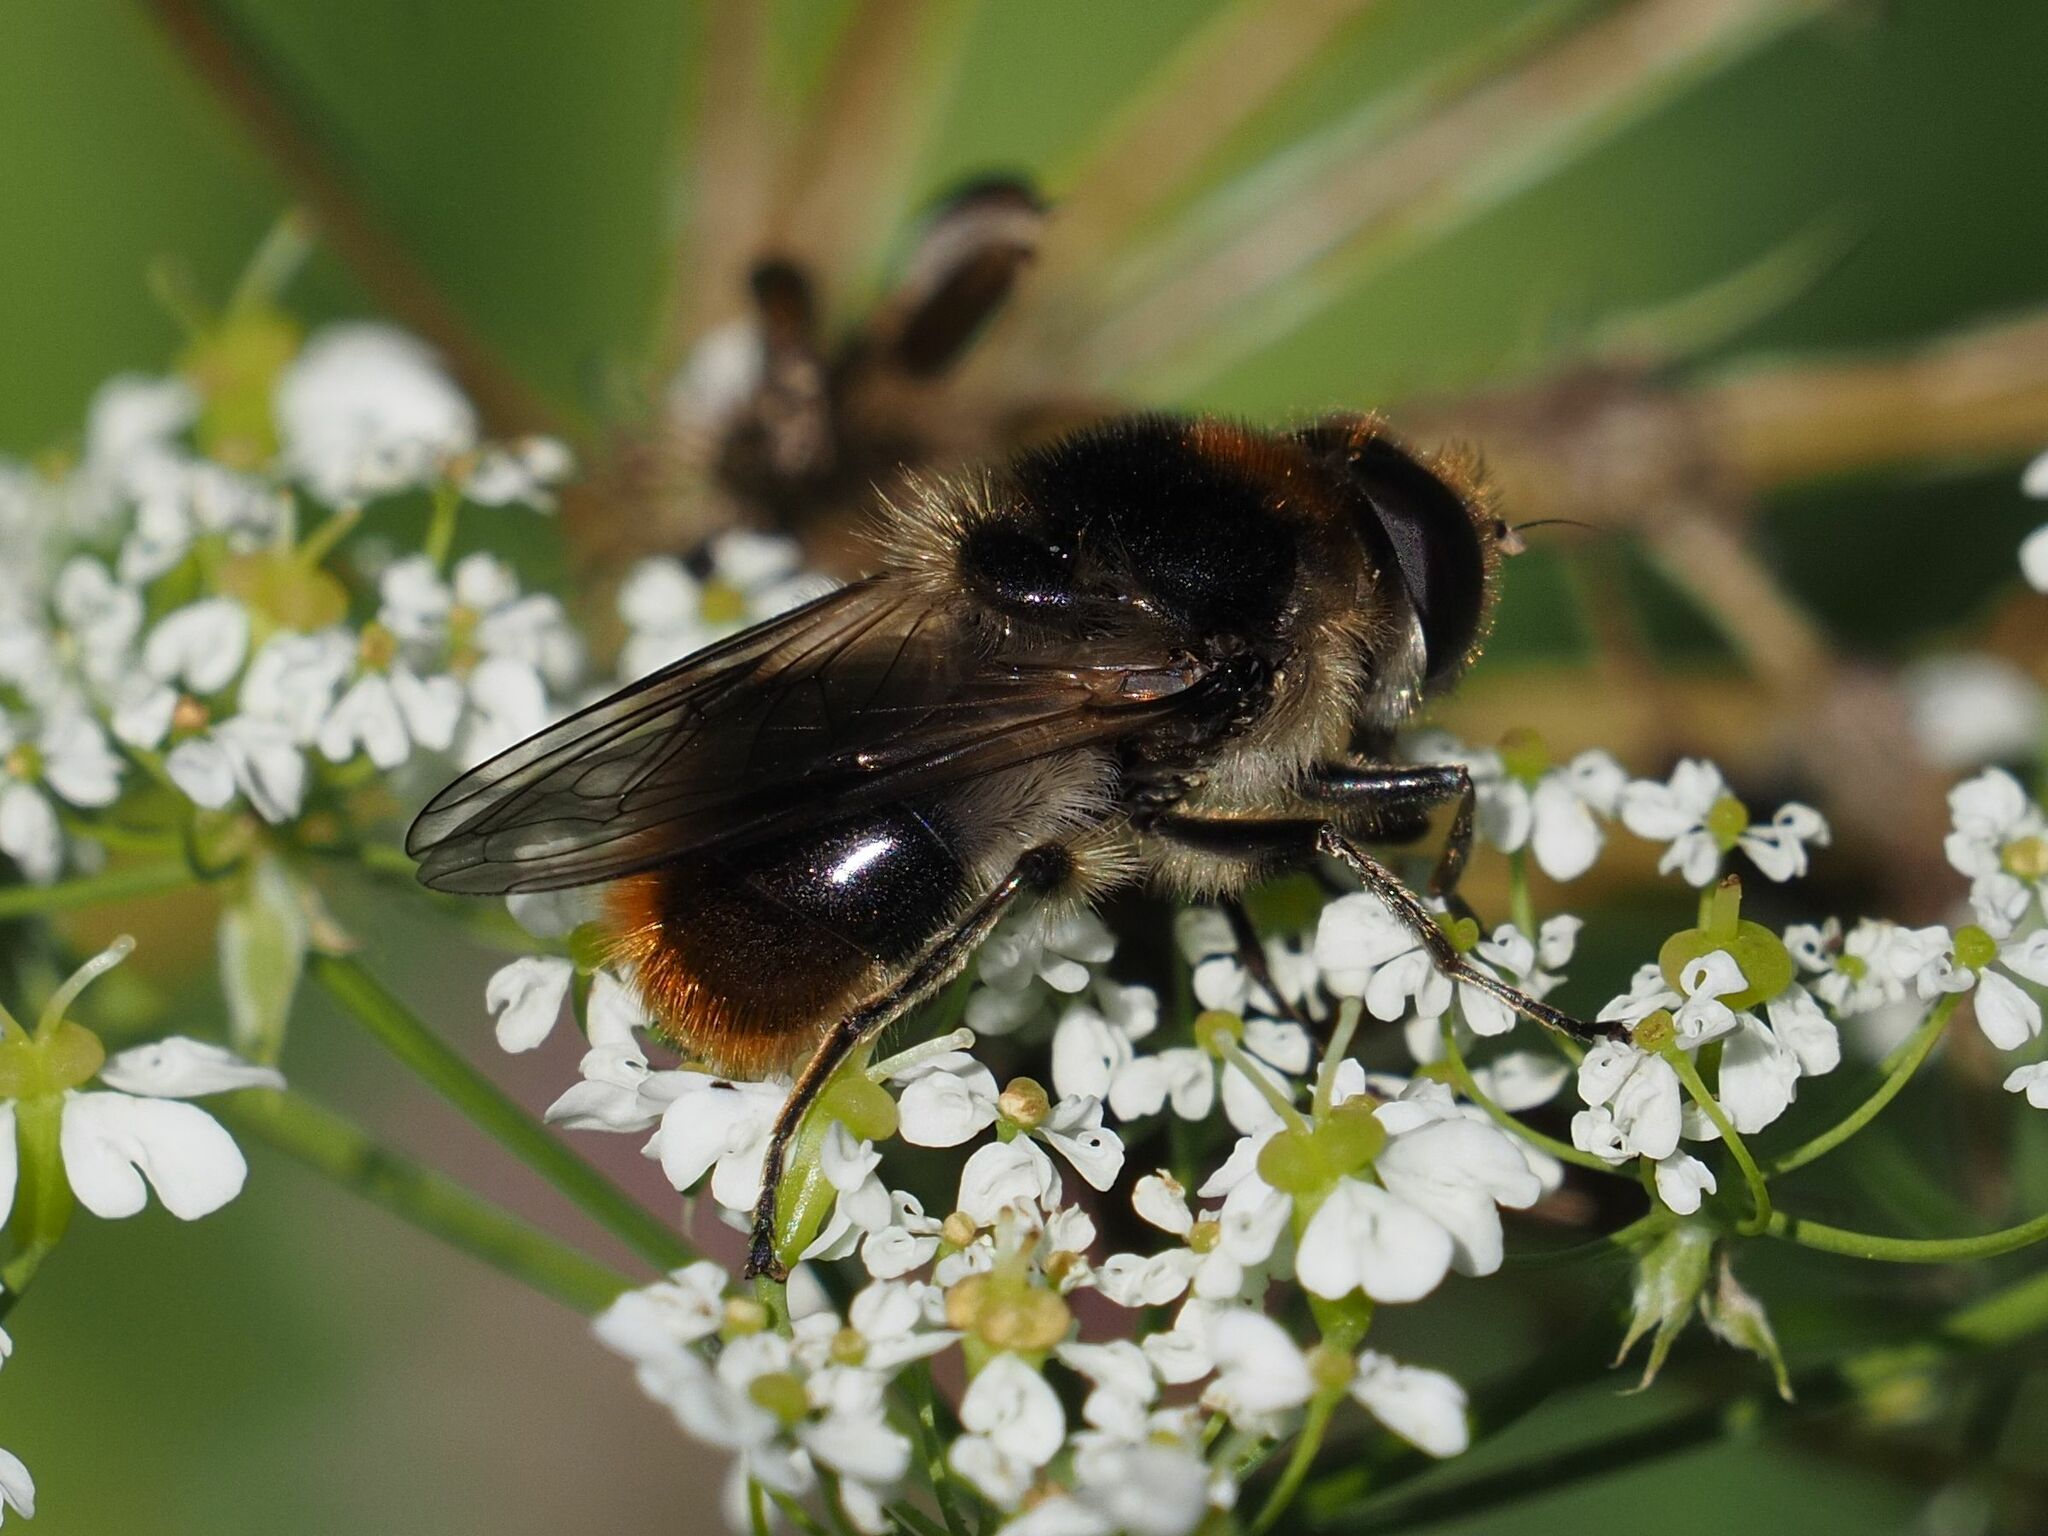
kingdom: Animalia
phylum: Arthropoda
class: Insecta
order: Diptera
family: Syrphidae
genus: Cheilosia
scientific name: Cheilosia illustrata
